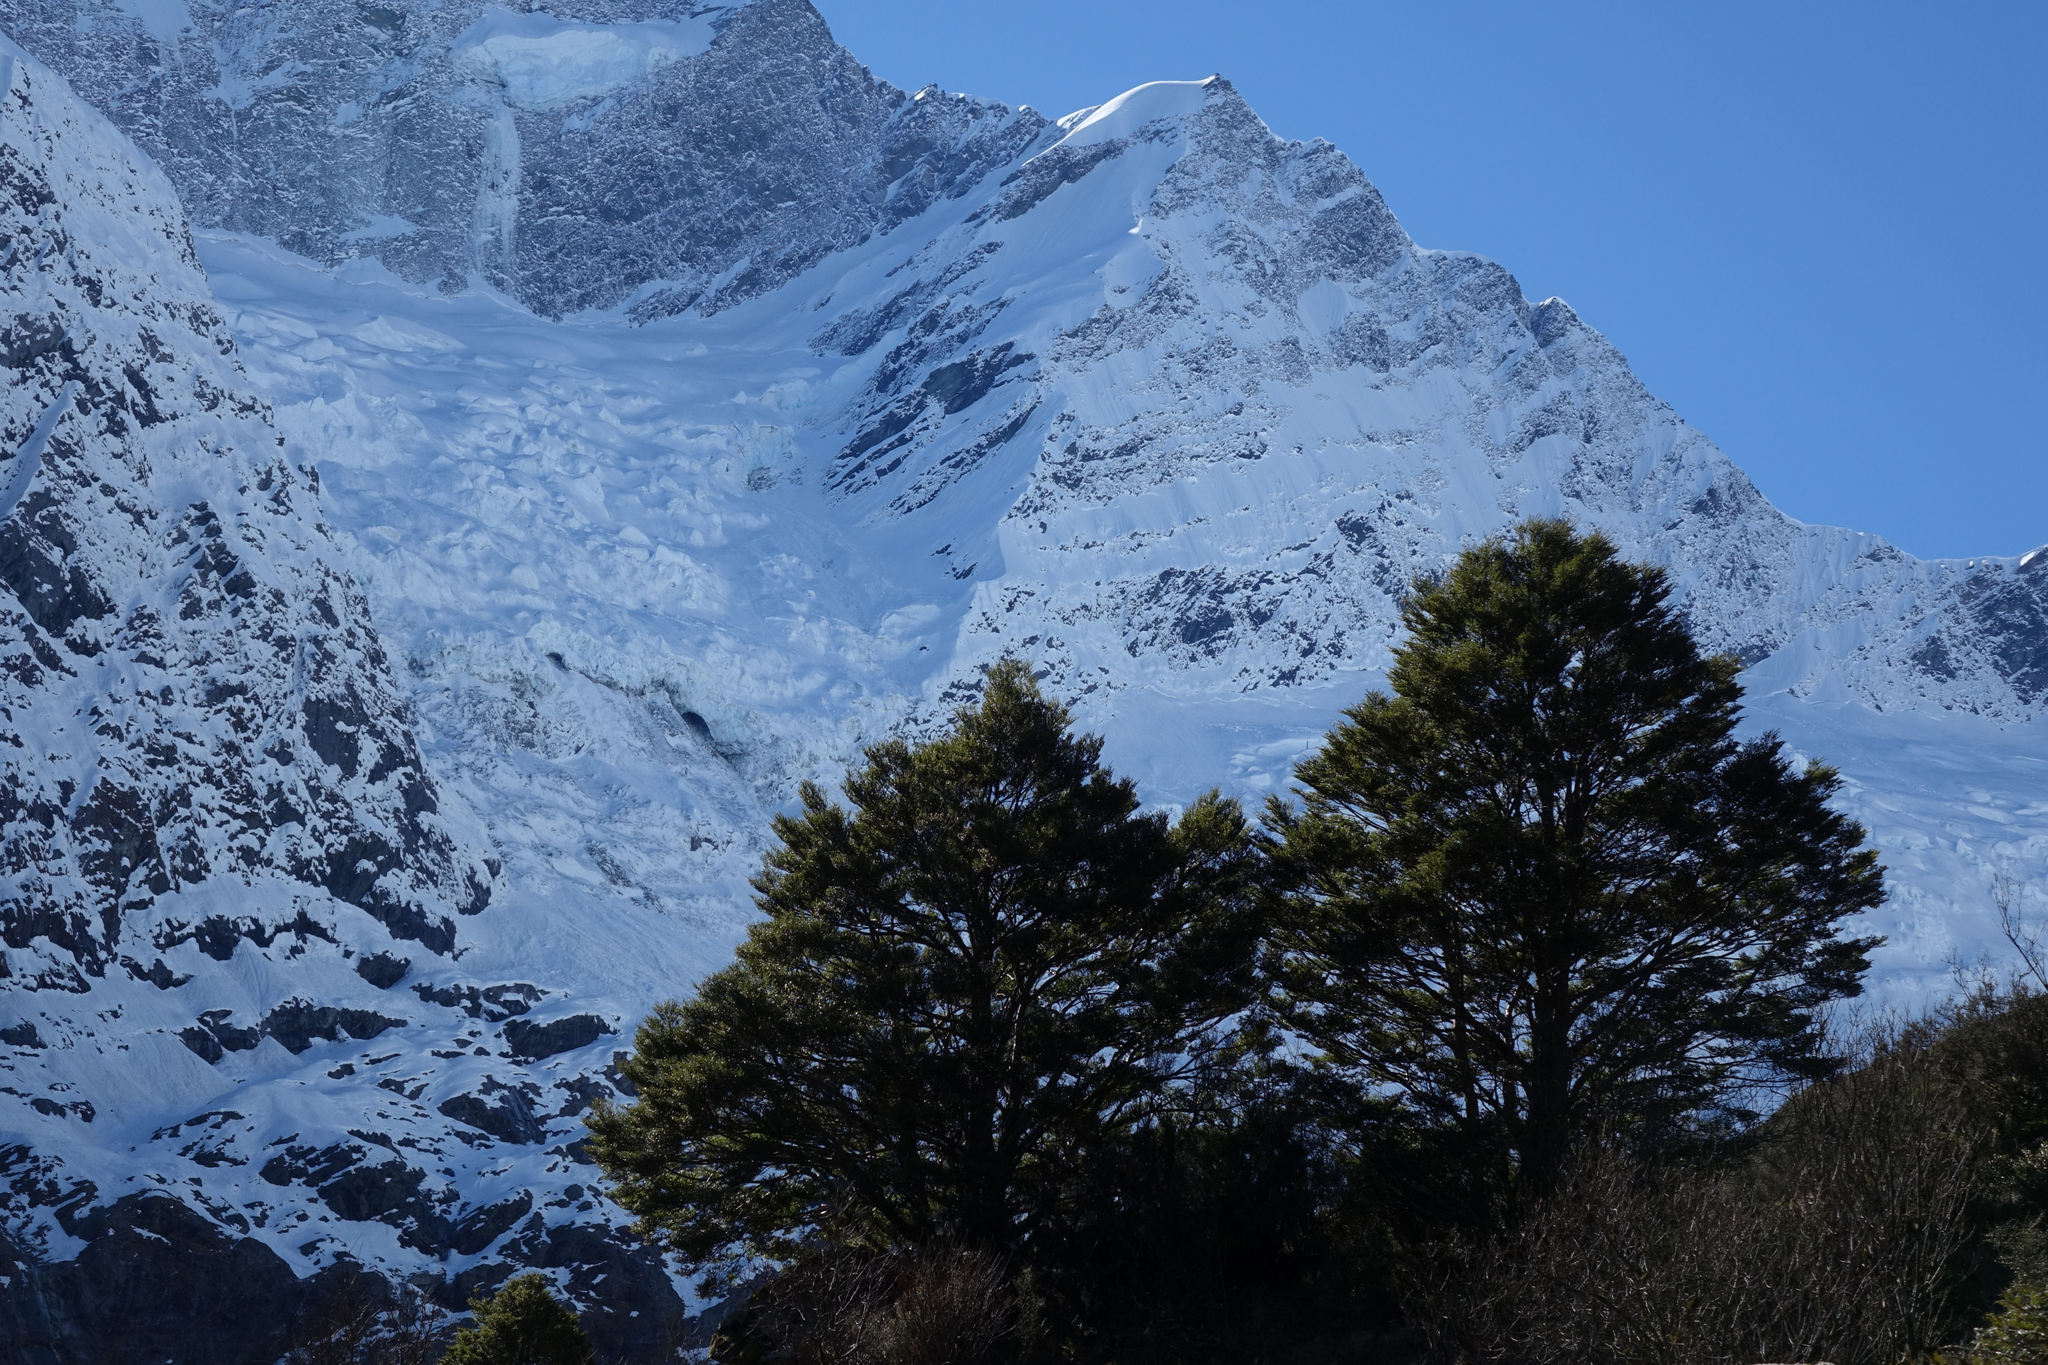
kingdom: Plantae
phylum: Tracheophyta
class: Magnoliopsida
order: Fagales
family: Nothofagaceae
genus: Nothofagus
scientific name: Nothofagus menziesii
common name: Silver beech
